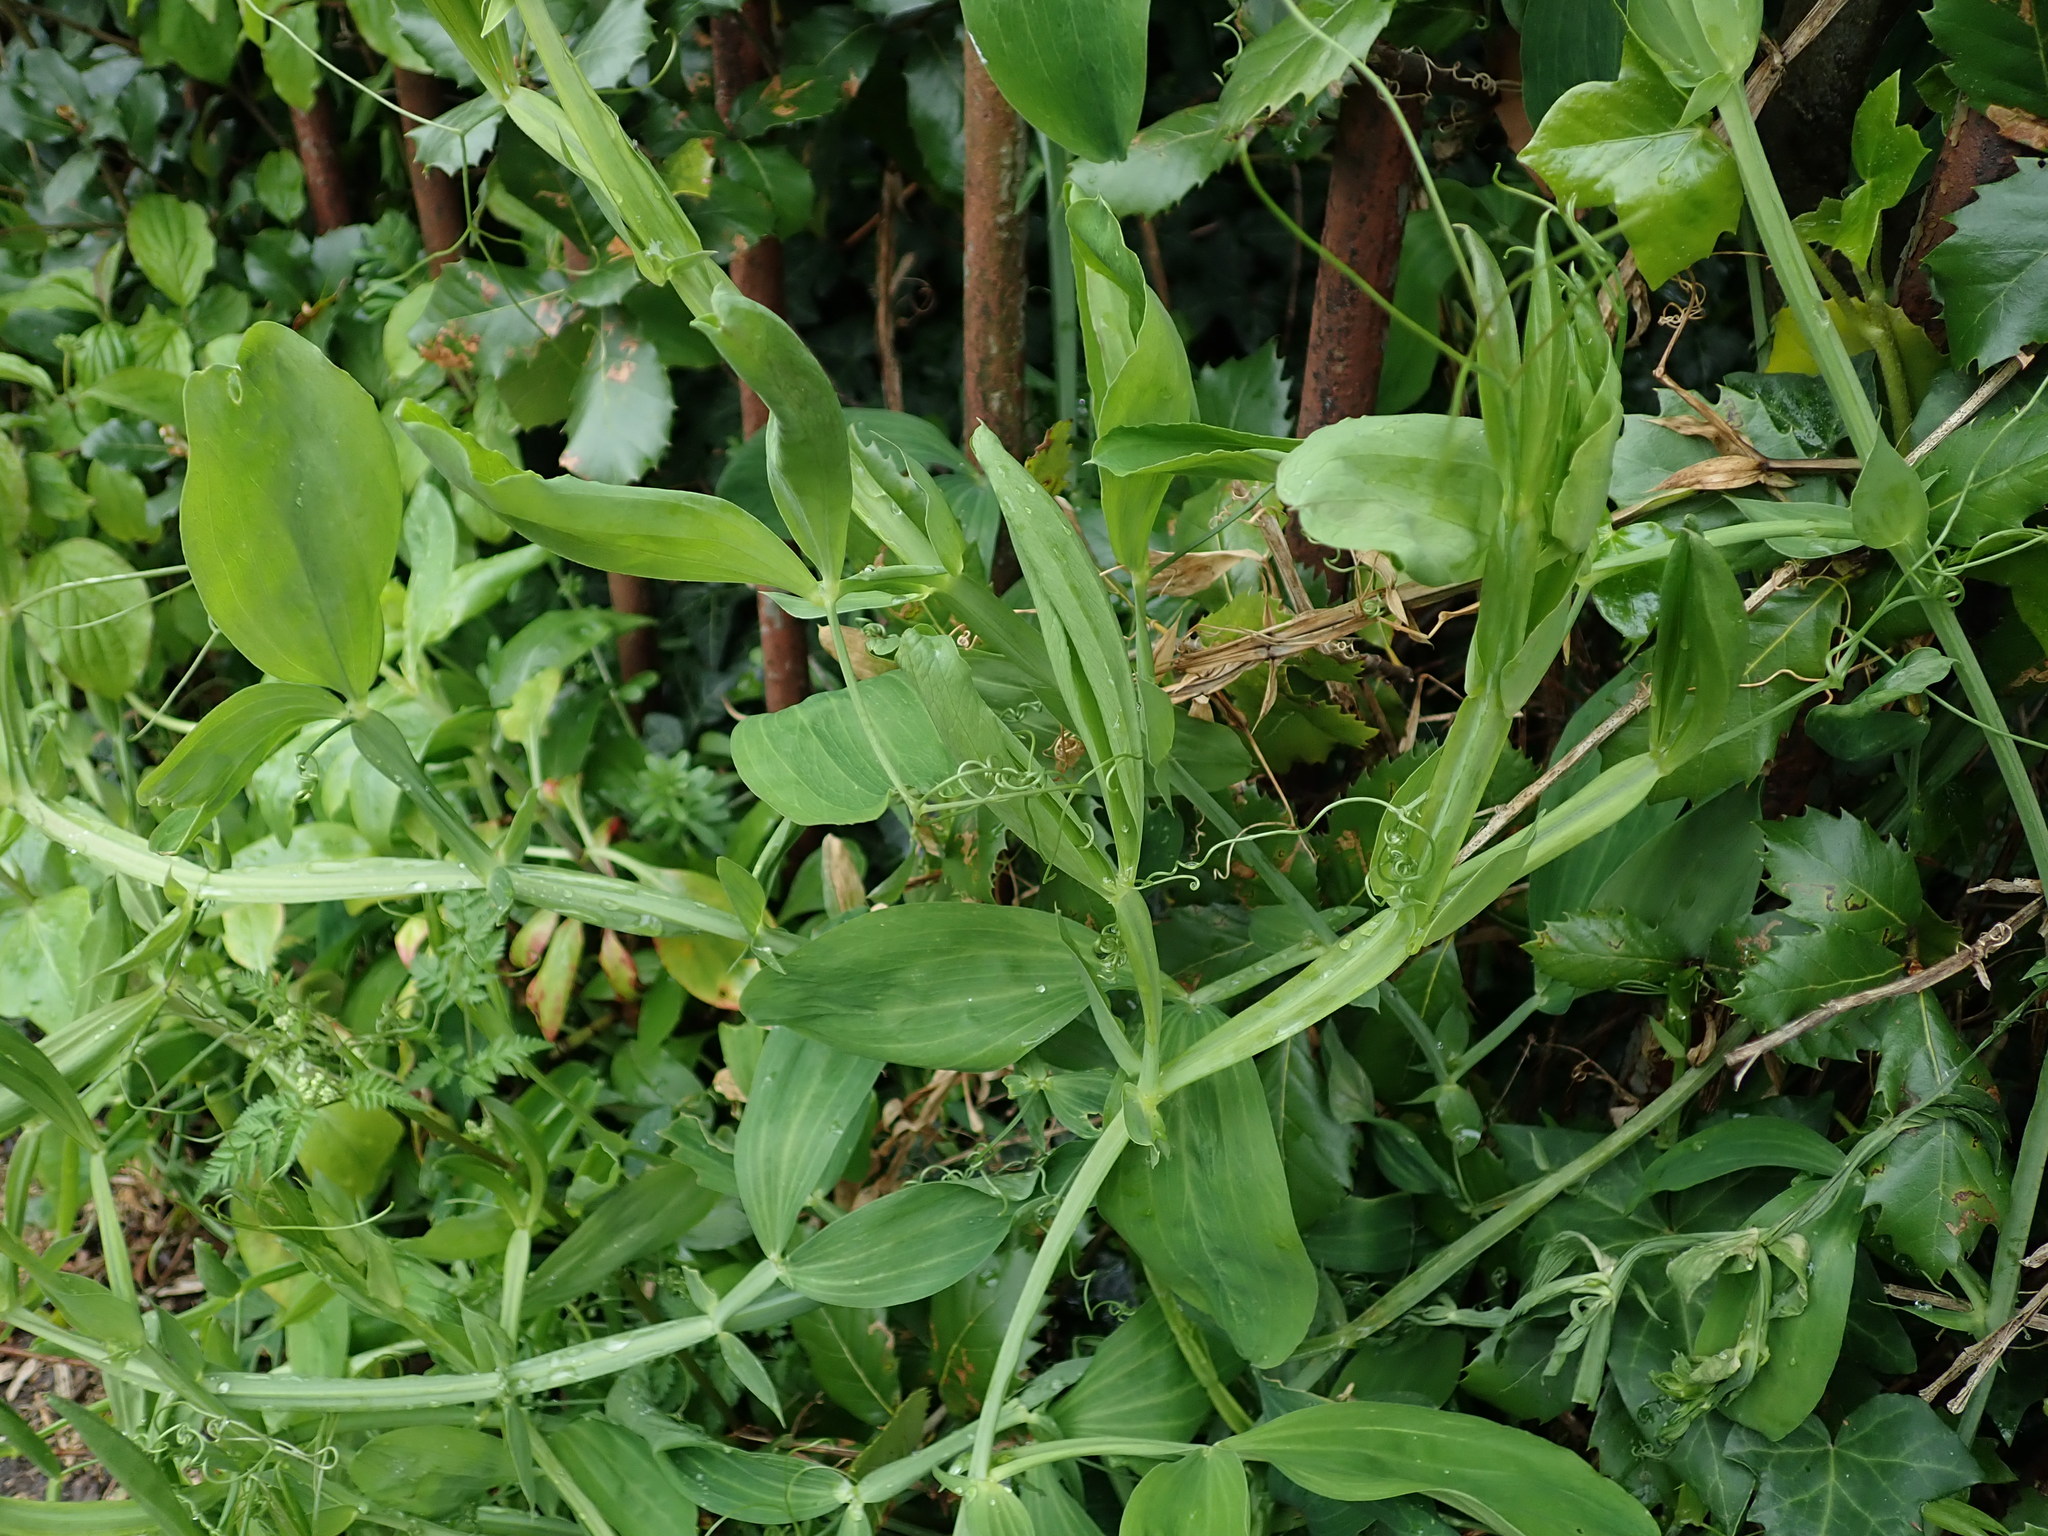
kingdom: Plantae
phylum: Tracheophyta
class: Magnoliopsida
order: Fabales
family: Fabaceae
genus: Lathyrus
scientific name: Lathyrus latifolius
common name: Perennial pea
